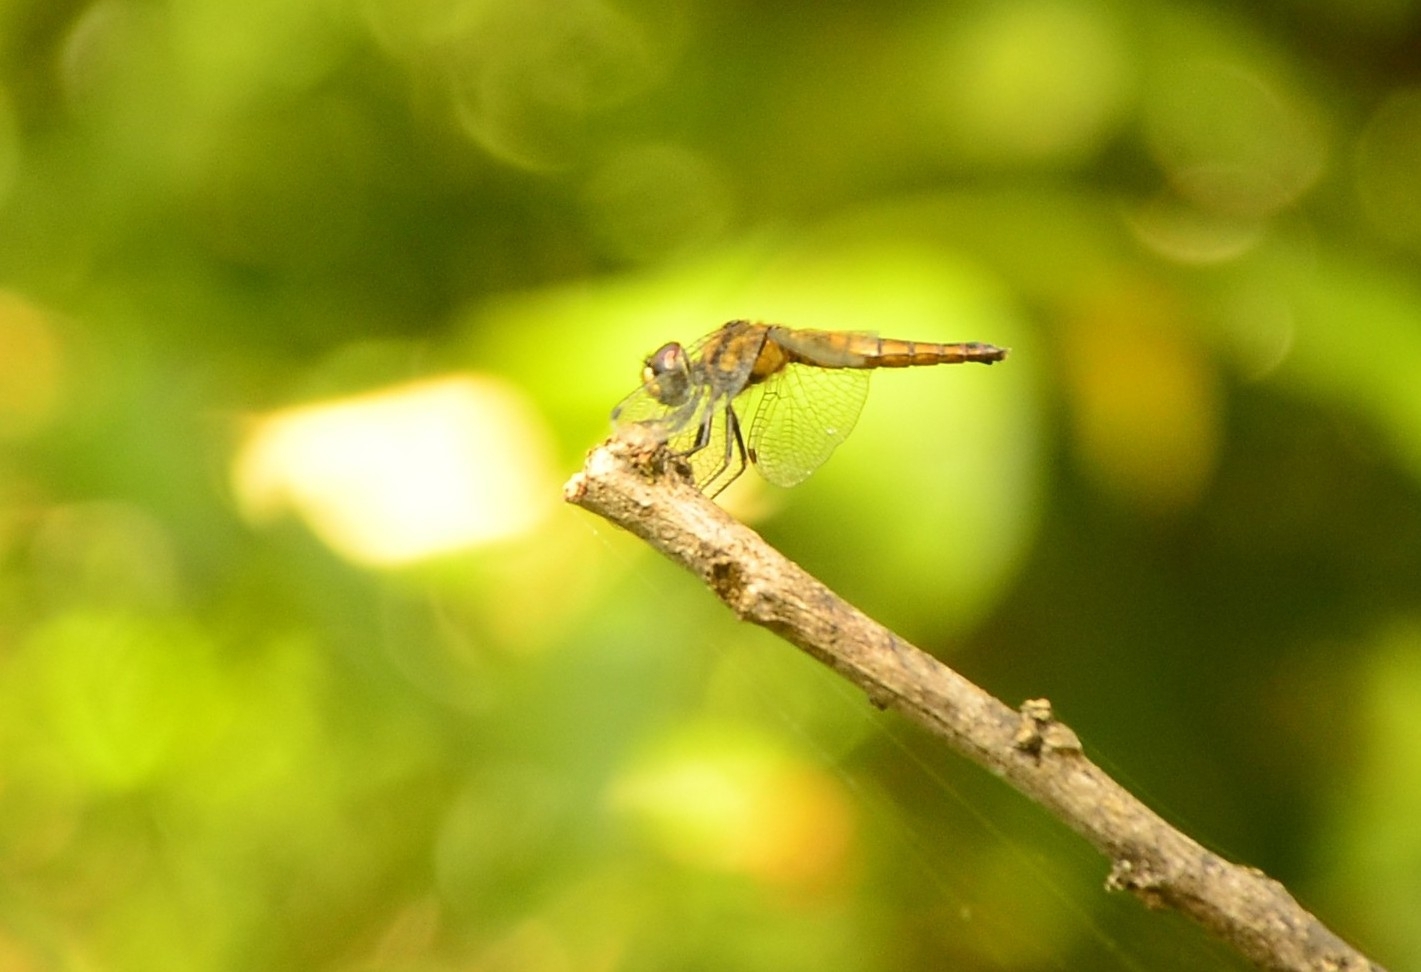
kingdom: Animalia
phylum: Arthropoda
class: Insecta
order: Odonata
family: Libellulidae
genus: Aethriamanta
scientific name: Aethriamanta brevipennis
